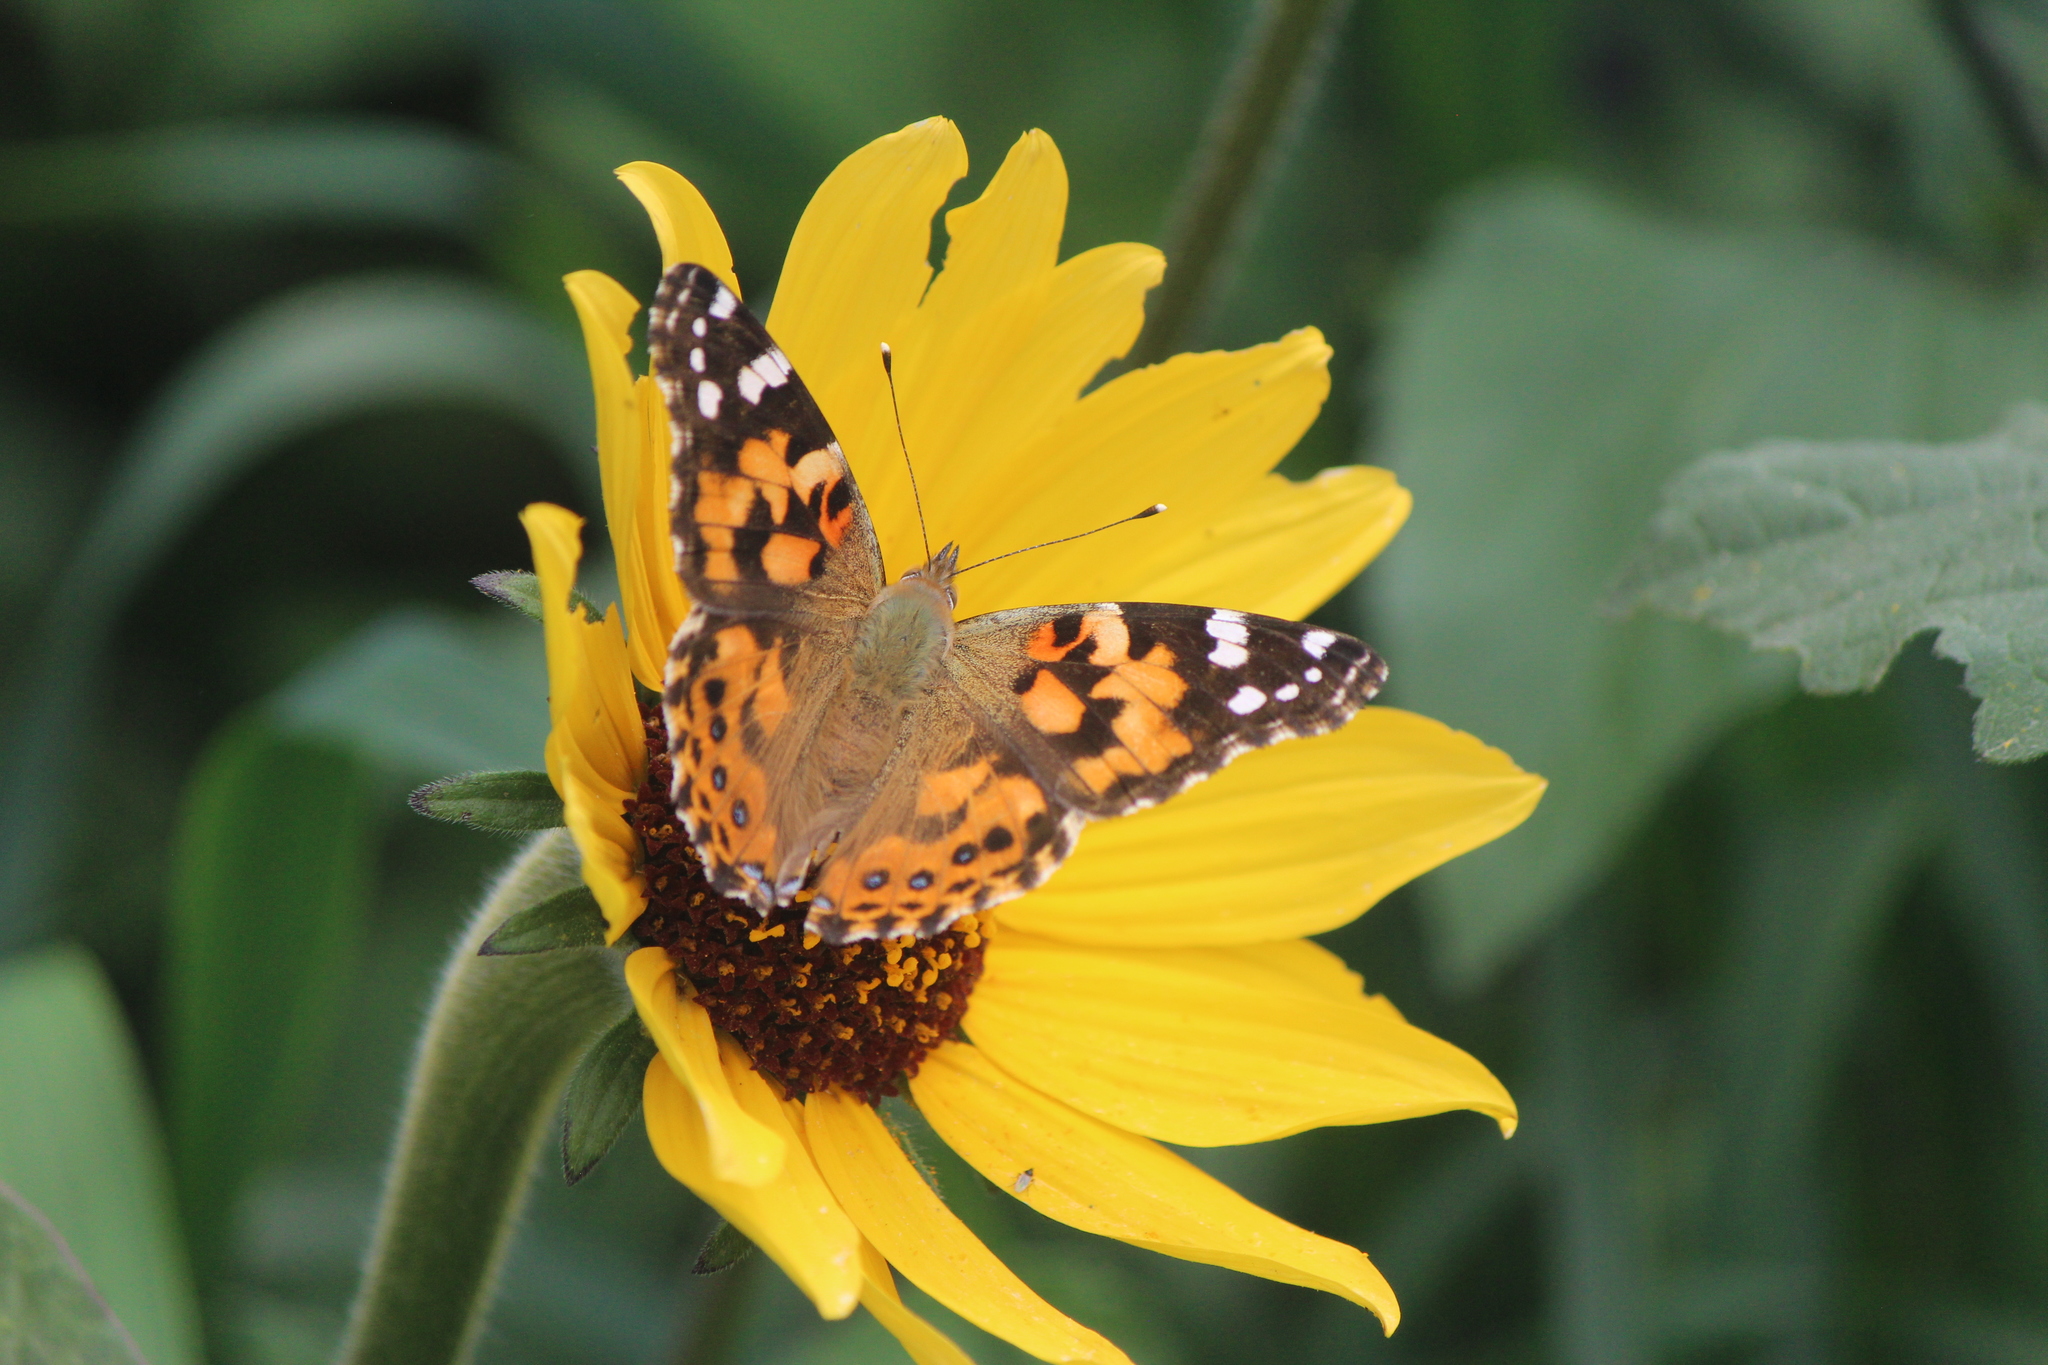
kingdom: Animalia
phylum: Arthropoda
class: Insecta
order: Lepidoptera
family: Nymphalidae
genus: Vanessa
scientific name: Vanessa cardui
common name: Painted lady
